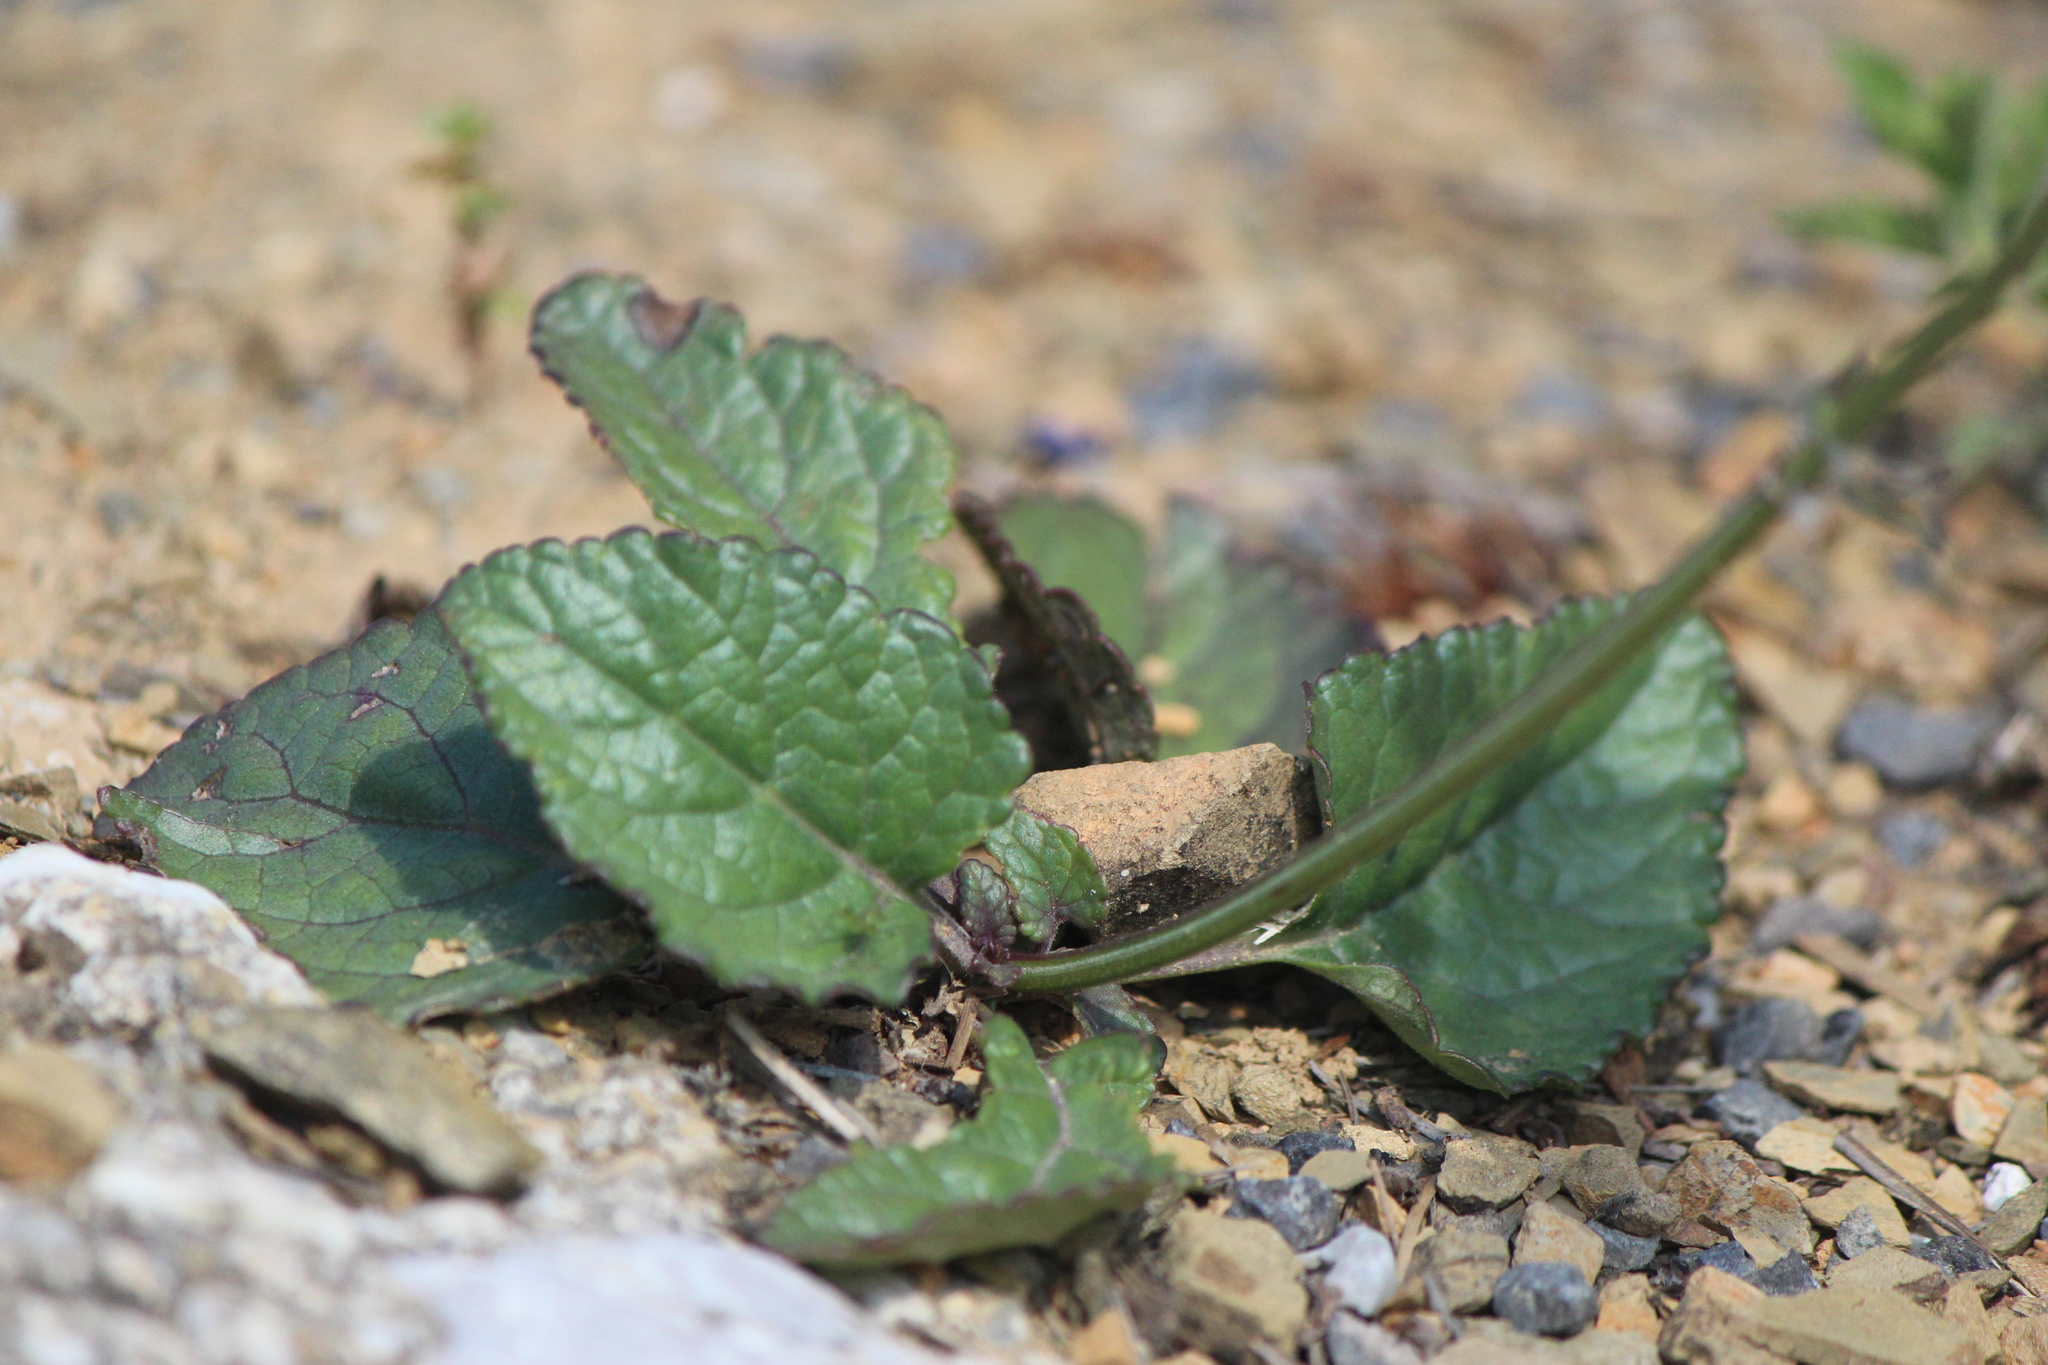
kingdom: Plantae
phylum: Tracheophyta
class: Magnoliopsida
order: Lamiales
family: Lamiaceae
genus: Salvia
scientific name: Salvia prunelloides
